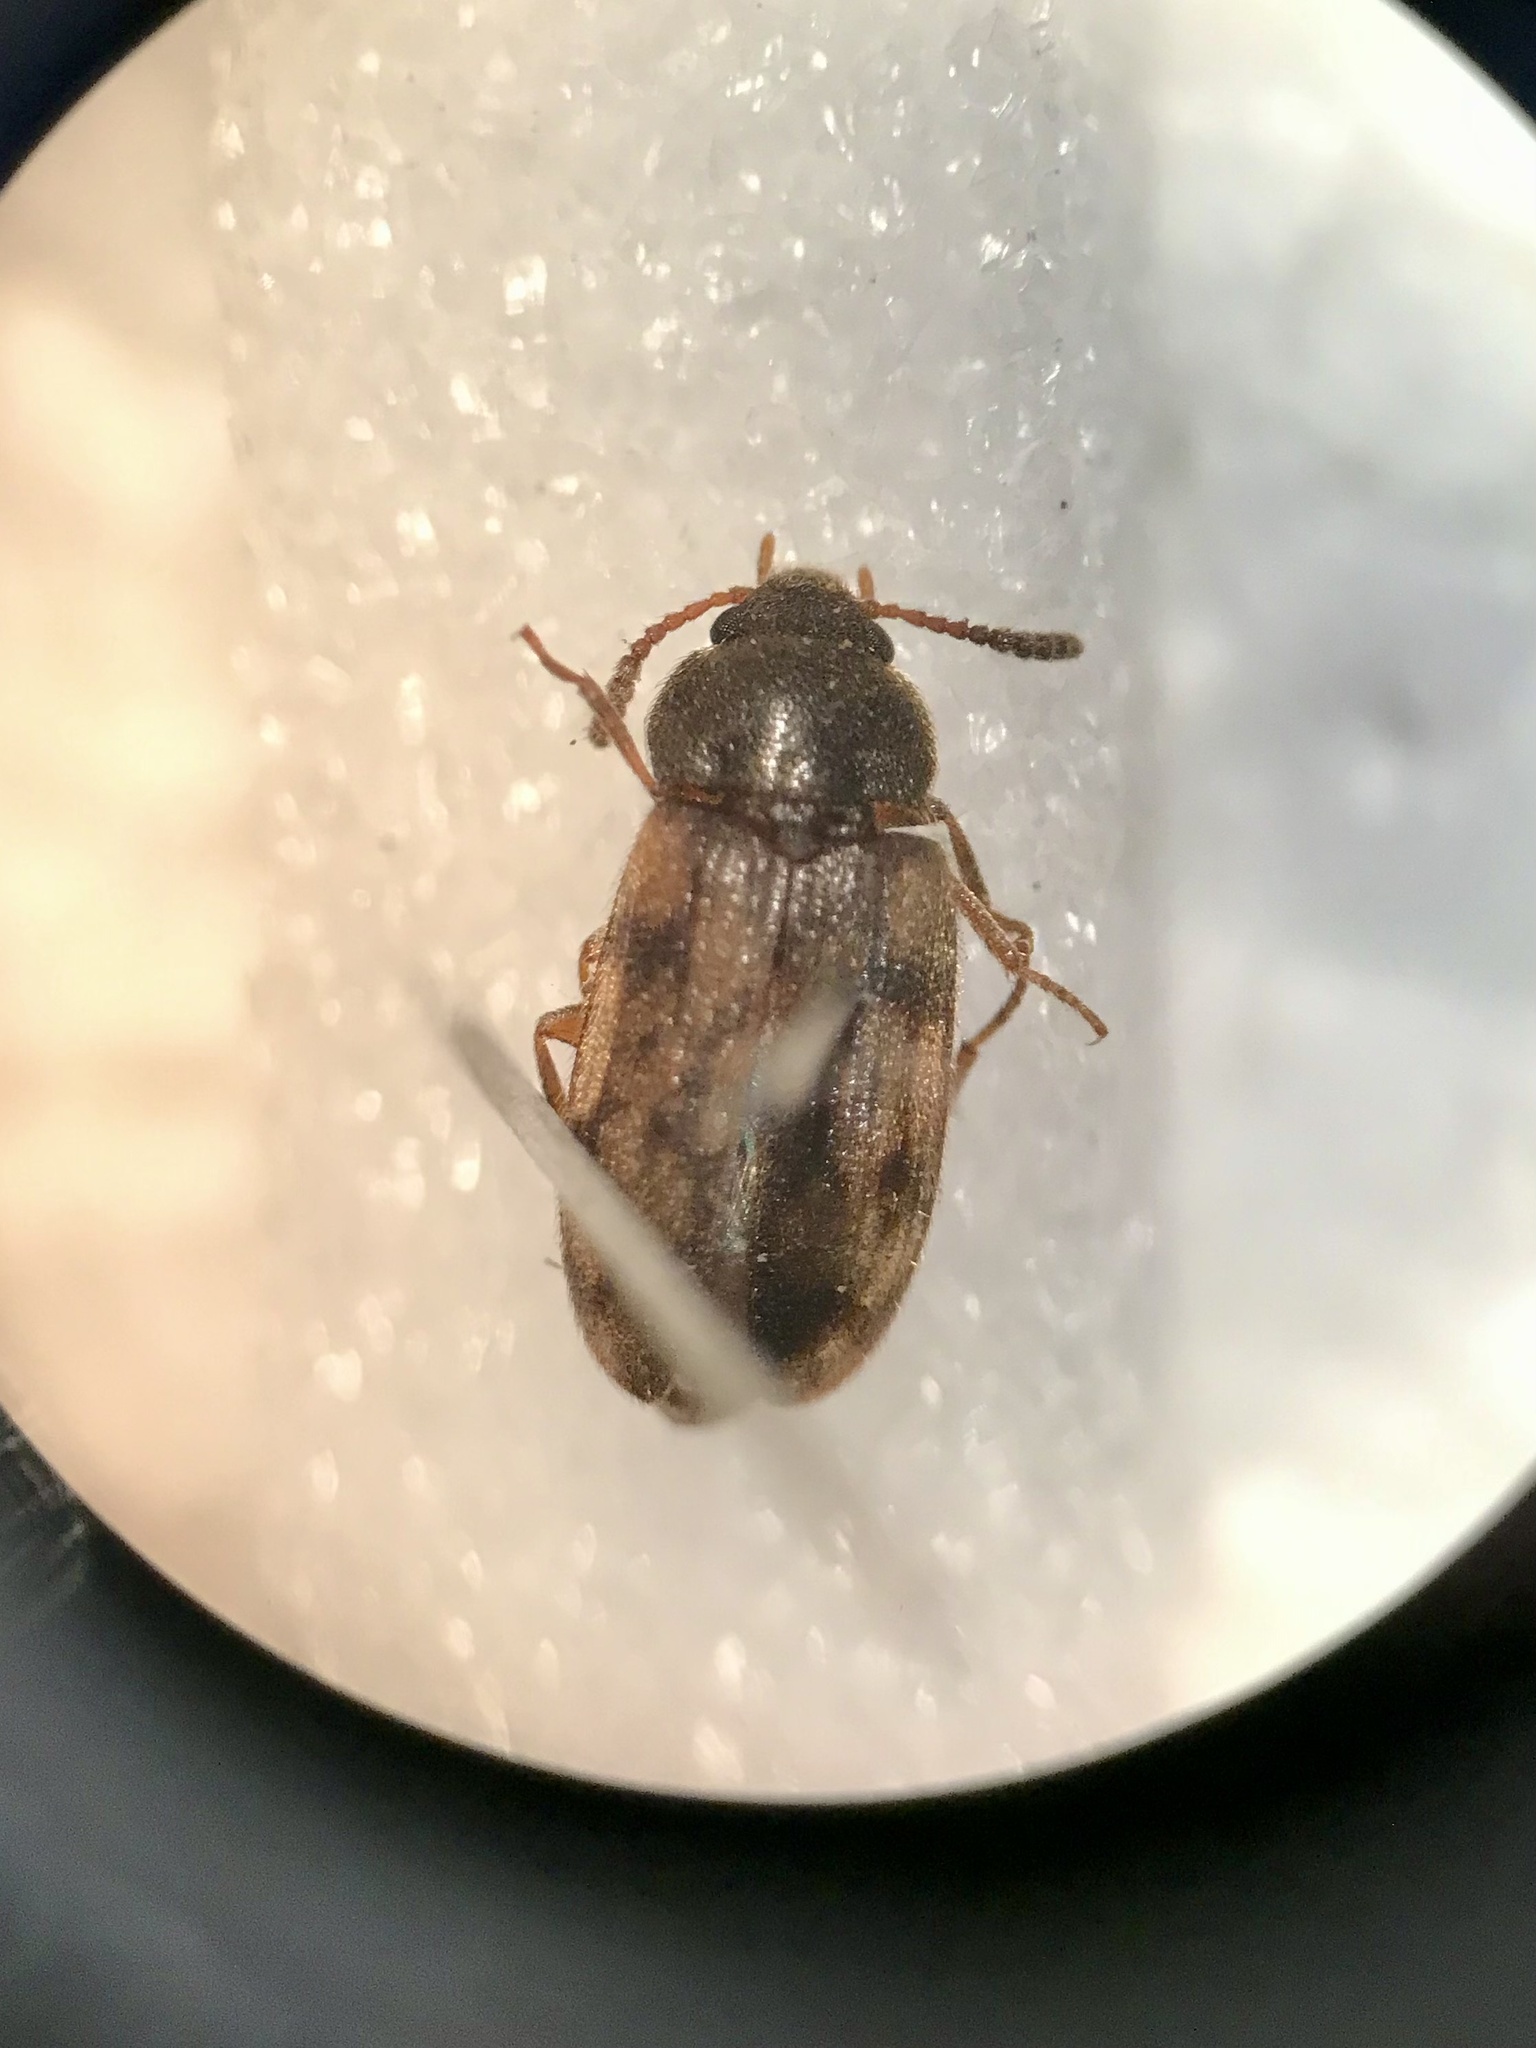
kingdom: Animalia
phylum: Arthropoda
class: Insecta
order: Coleoptera
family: Mycetophagidae
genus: Mycetophagus
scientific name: Mycetophagus pluripunctatus
